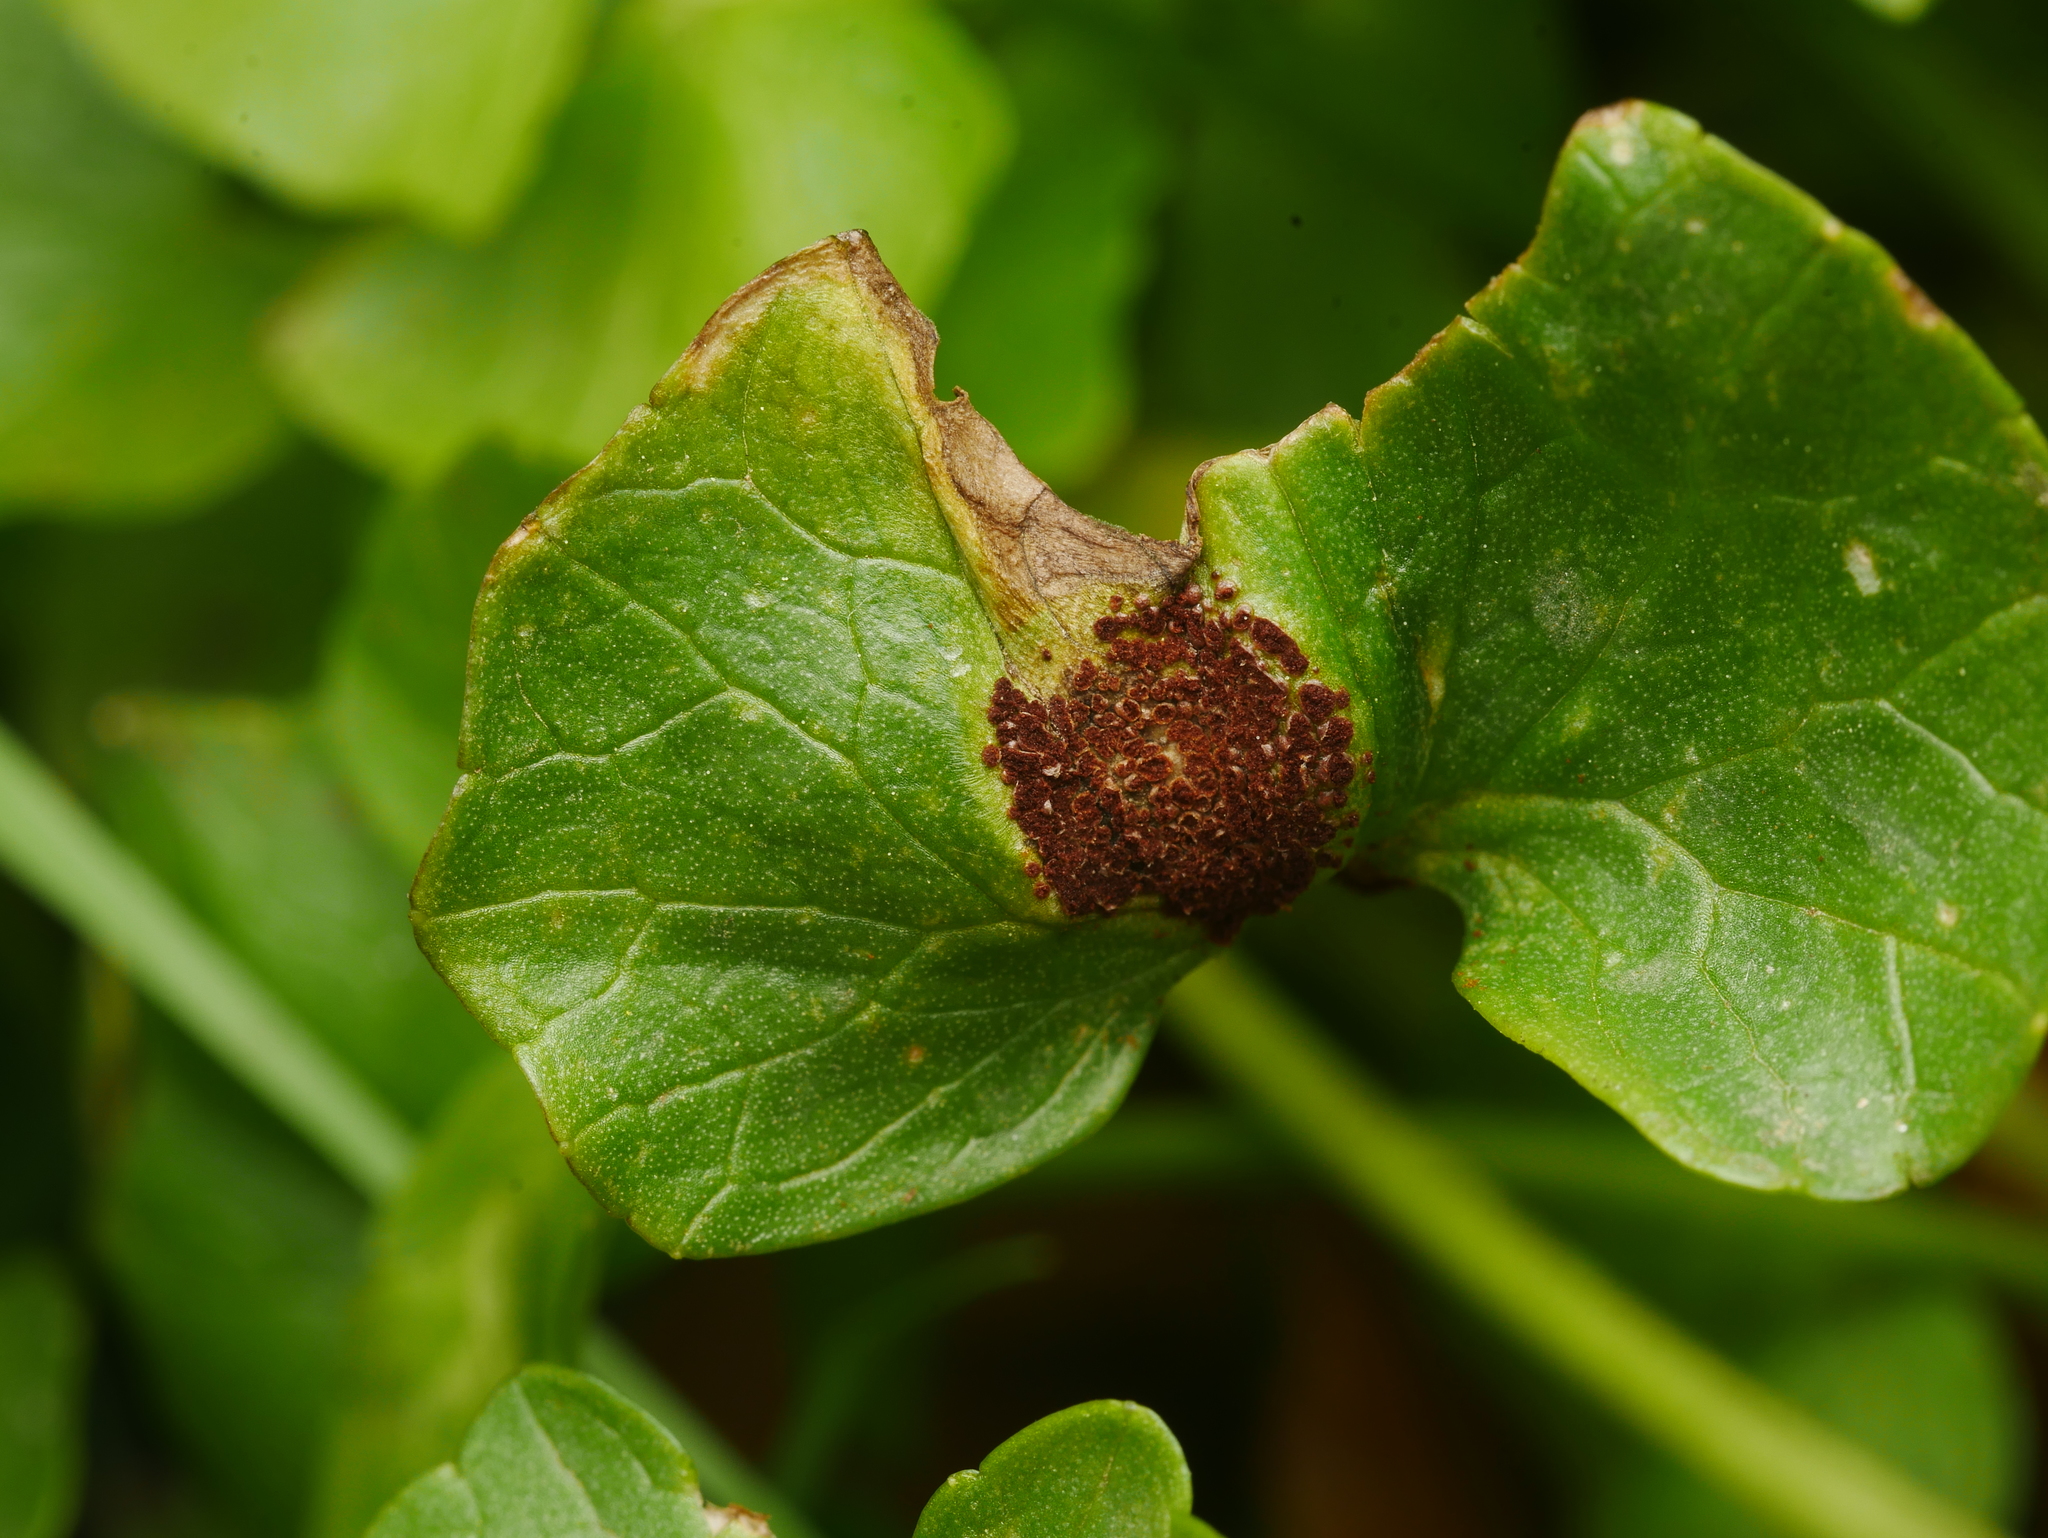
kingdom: Fungi
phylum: Basidiomycota
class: Pucciniomycetes
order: Pucciniales
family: Pucciniaceae
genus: Uromyces
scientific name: Uromyces ficariae
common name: Bitter chocolate rust
